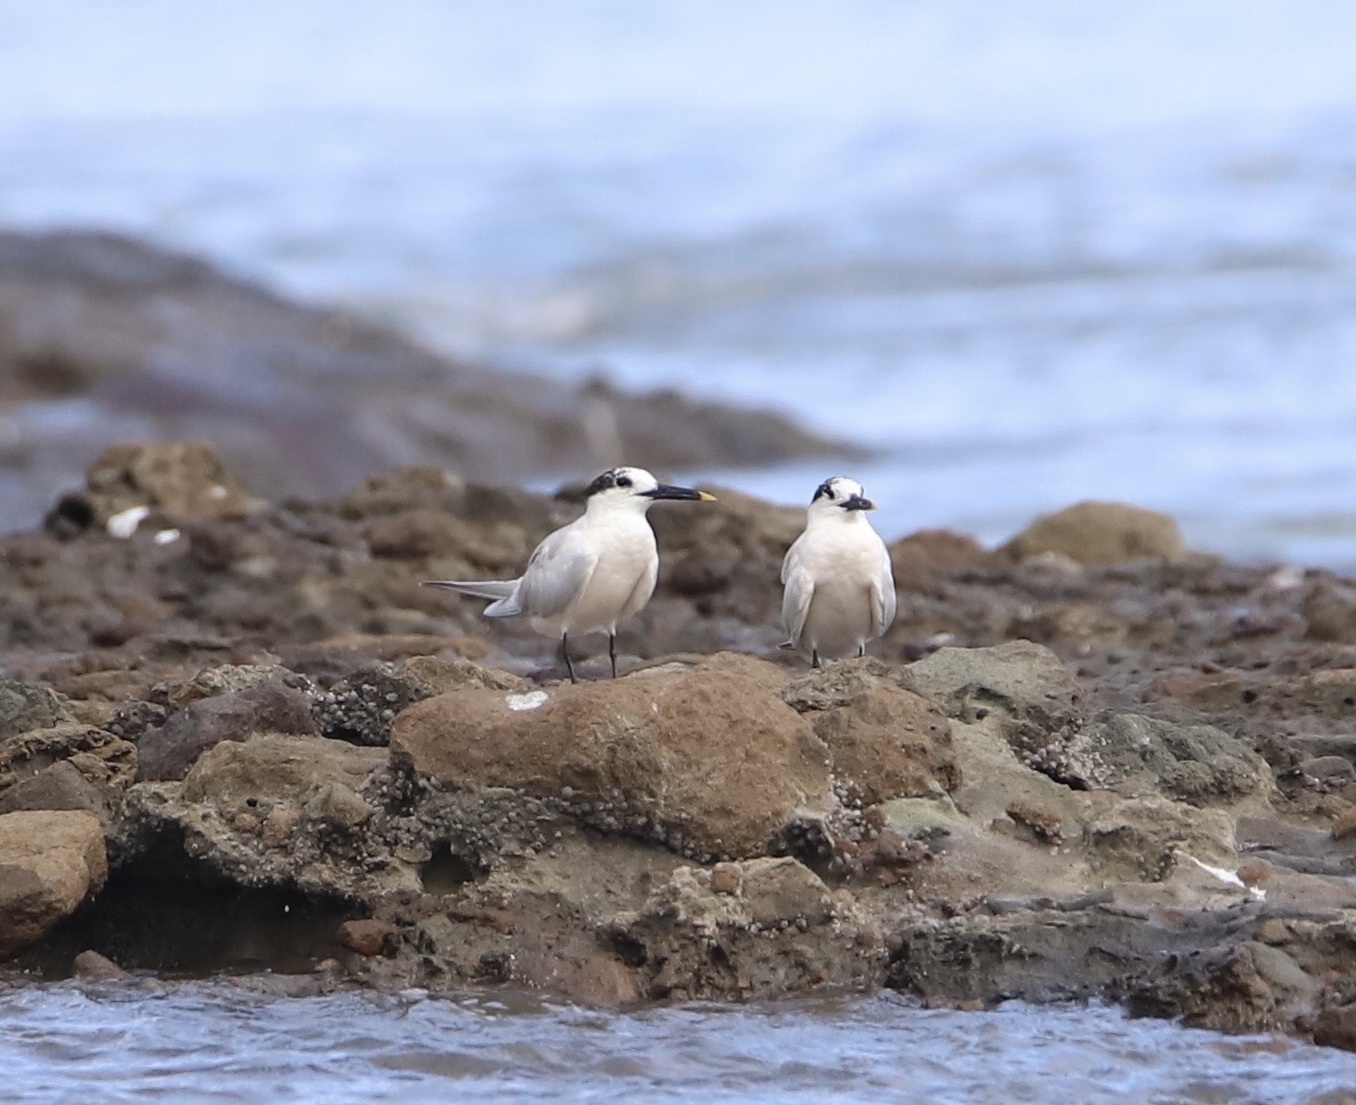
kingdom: Animalia
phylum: Chordata
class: Aves
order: Charadriiformes
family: Laridae
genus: Thalasseus
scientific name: Thalasseus sandvicensis
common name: Sandwich tern
